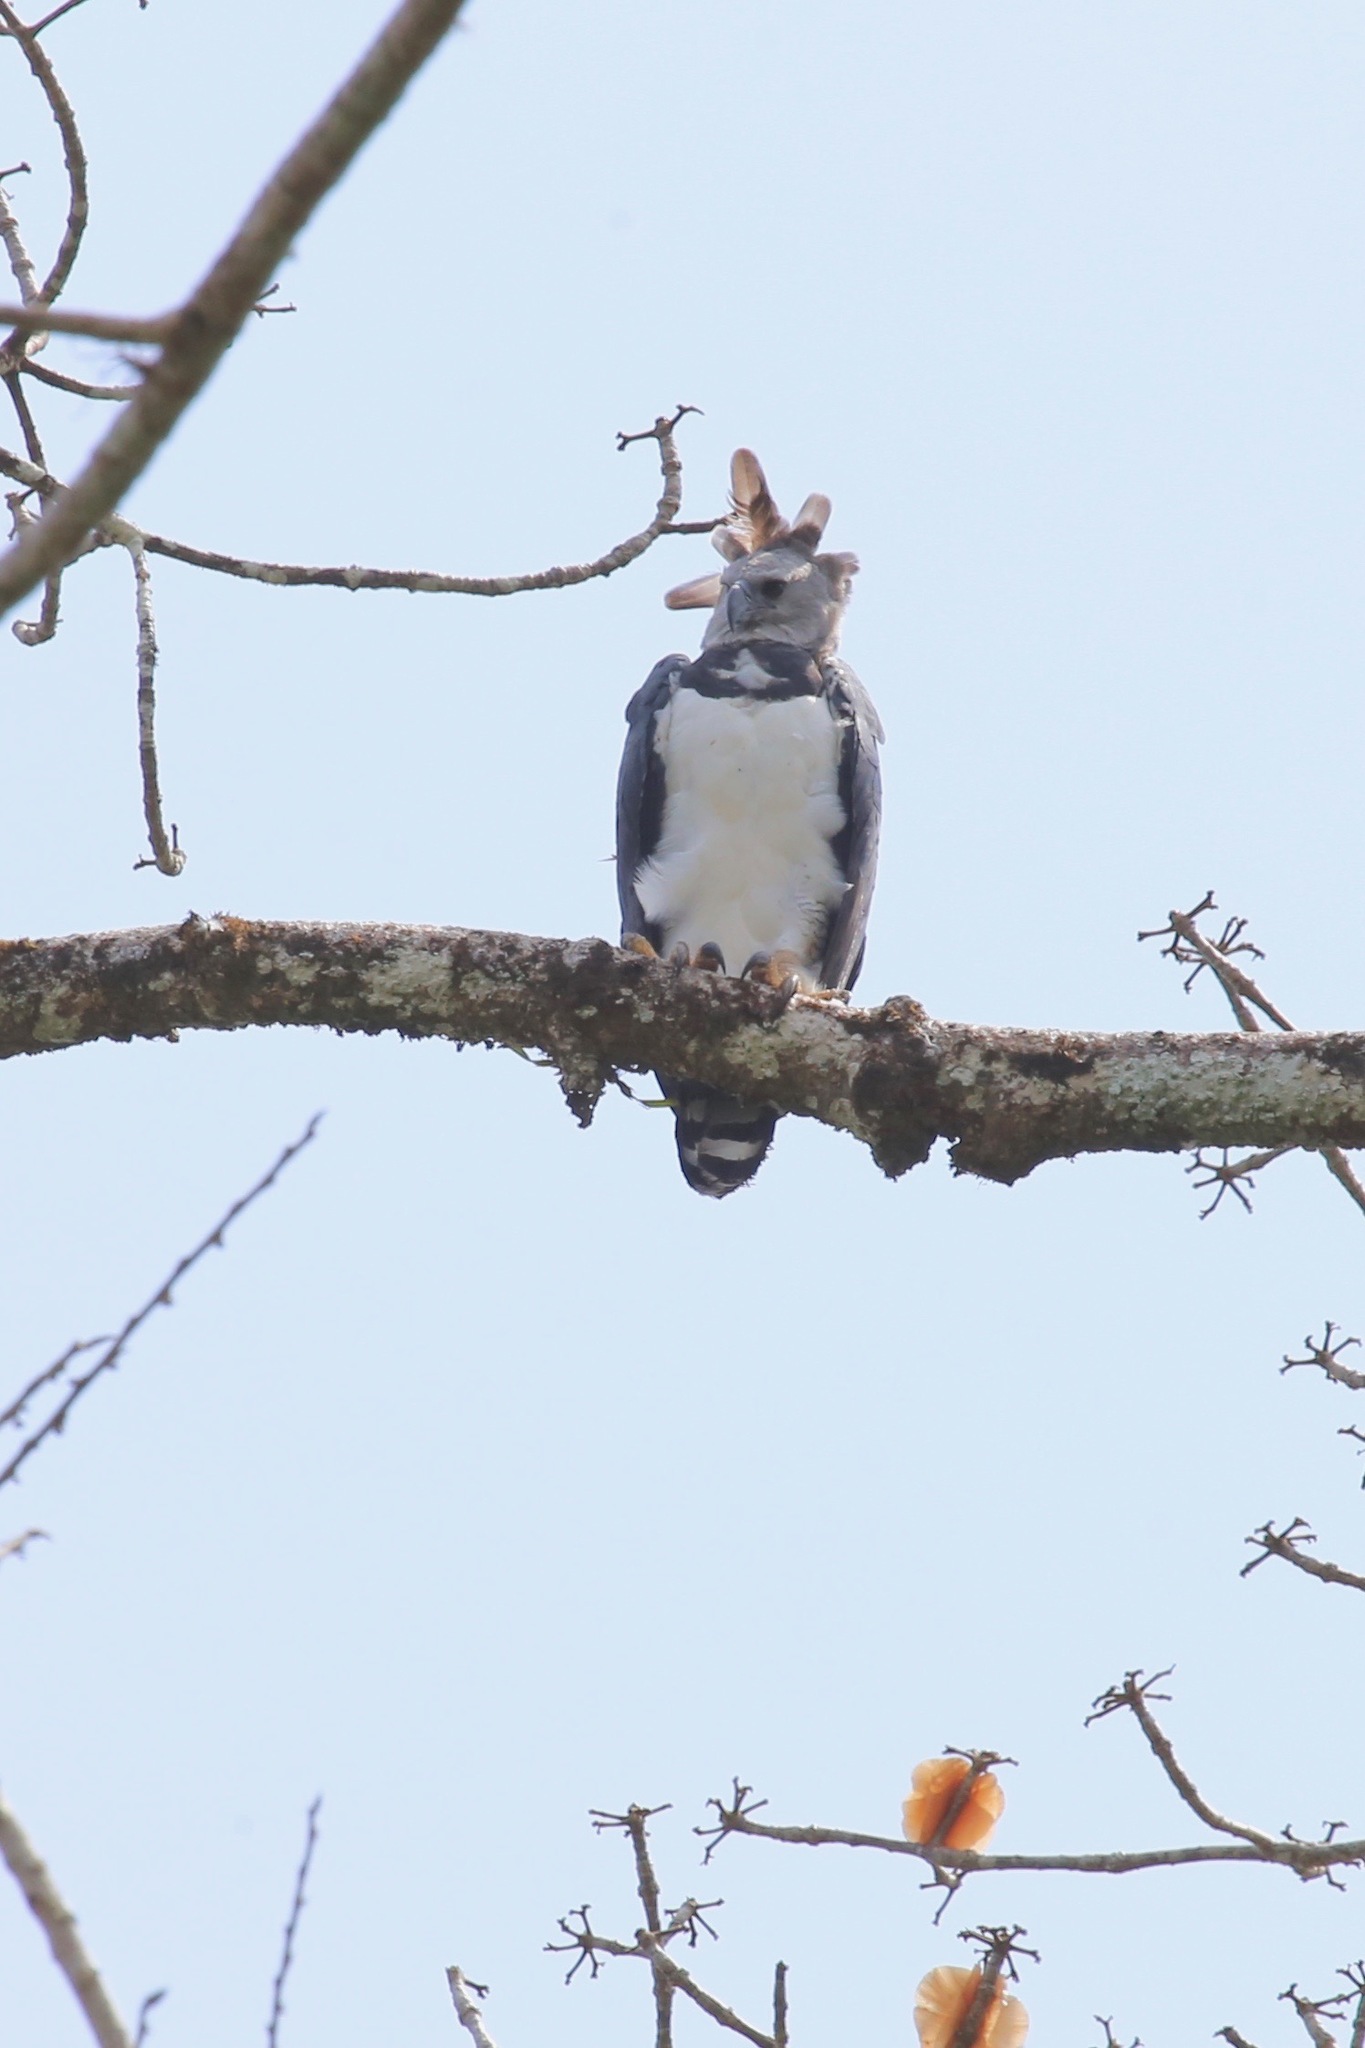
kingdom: Animalia
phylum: Chordata
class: Aves
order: Accipitriformes
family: Accipitridae
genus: Harpia
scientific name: Harpia harpyja
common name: Harpy eagle
